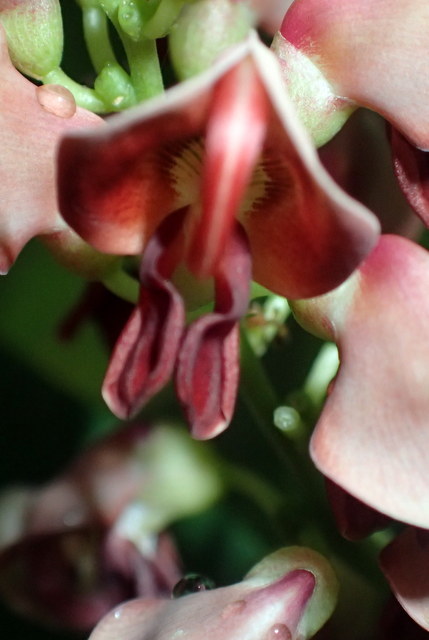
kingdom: Plantae
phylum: Tracheophyta
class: Magnoliopsida
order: Fabales
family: Fabaceae
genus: Apios
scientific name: Apios americana
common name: American potato-bean
